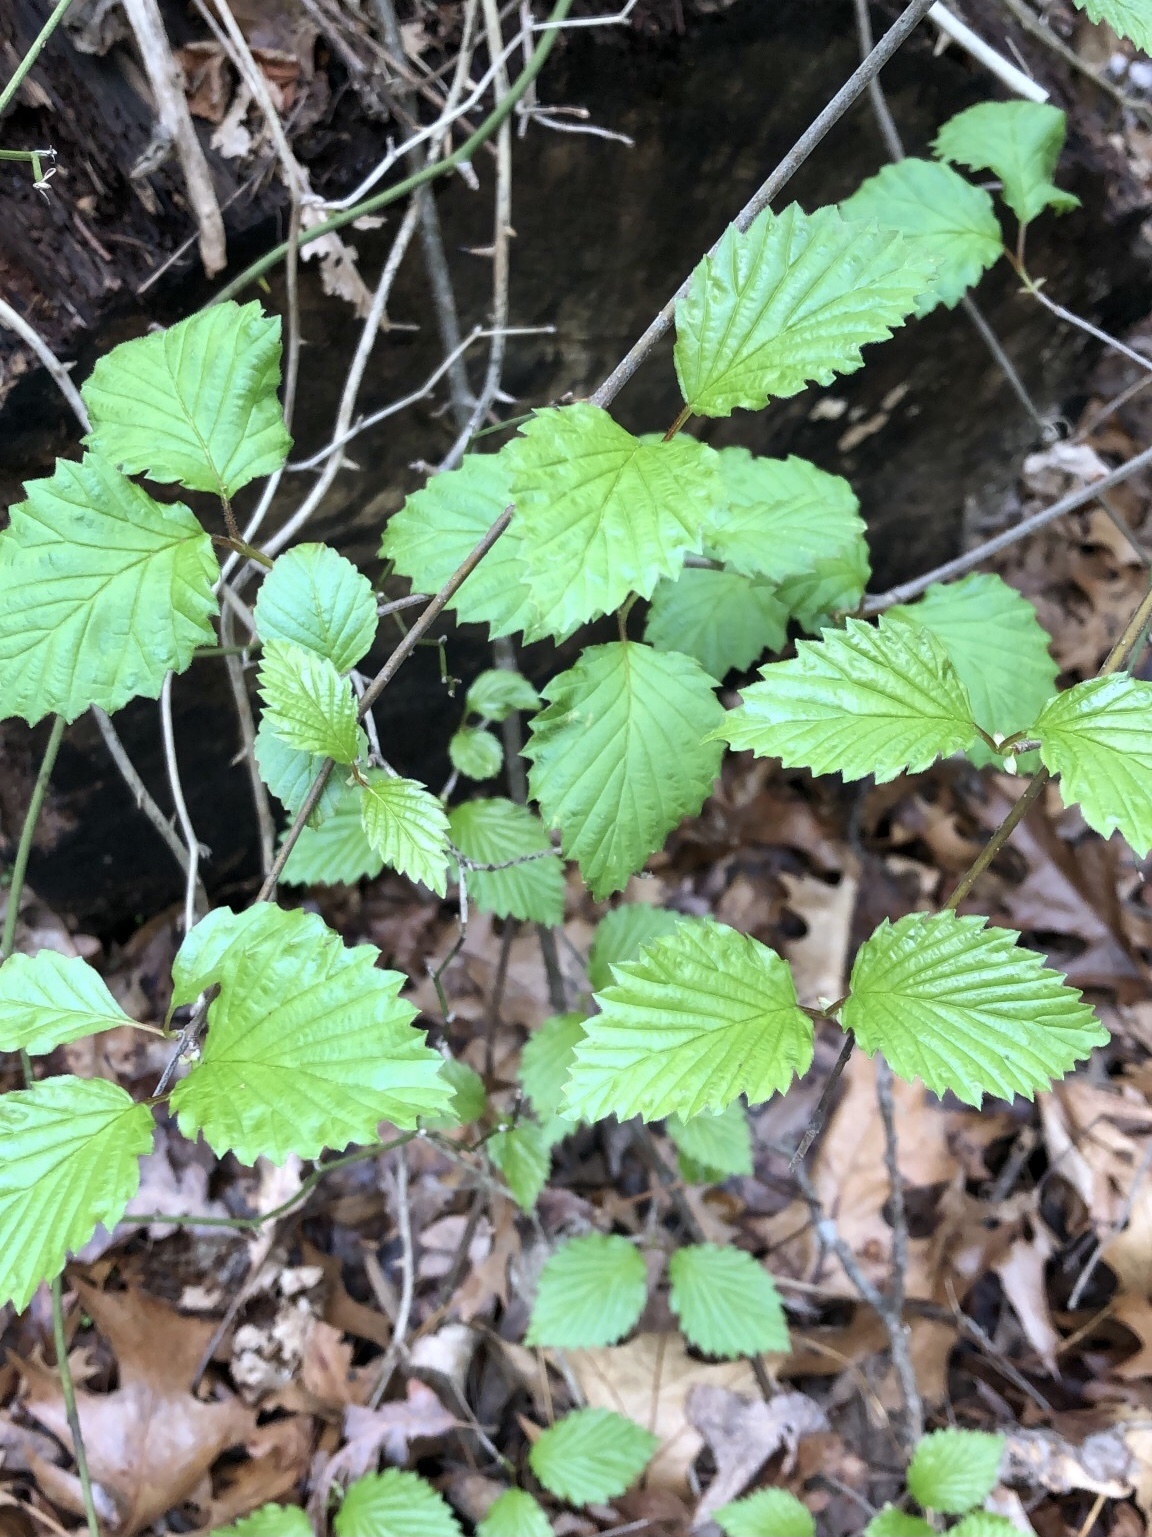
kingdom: Plantae
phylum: Tracheophyta
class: Magnoliopsida
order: Dipsacales
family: Viburnaceae
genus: Viburnum
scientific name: Viburnum dentatum
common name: Arrow-wood
